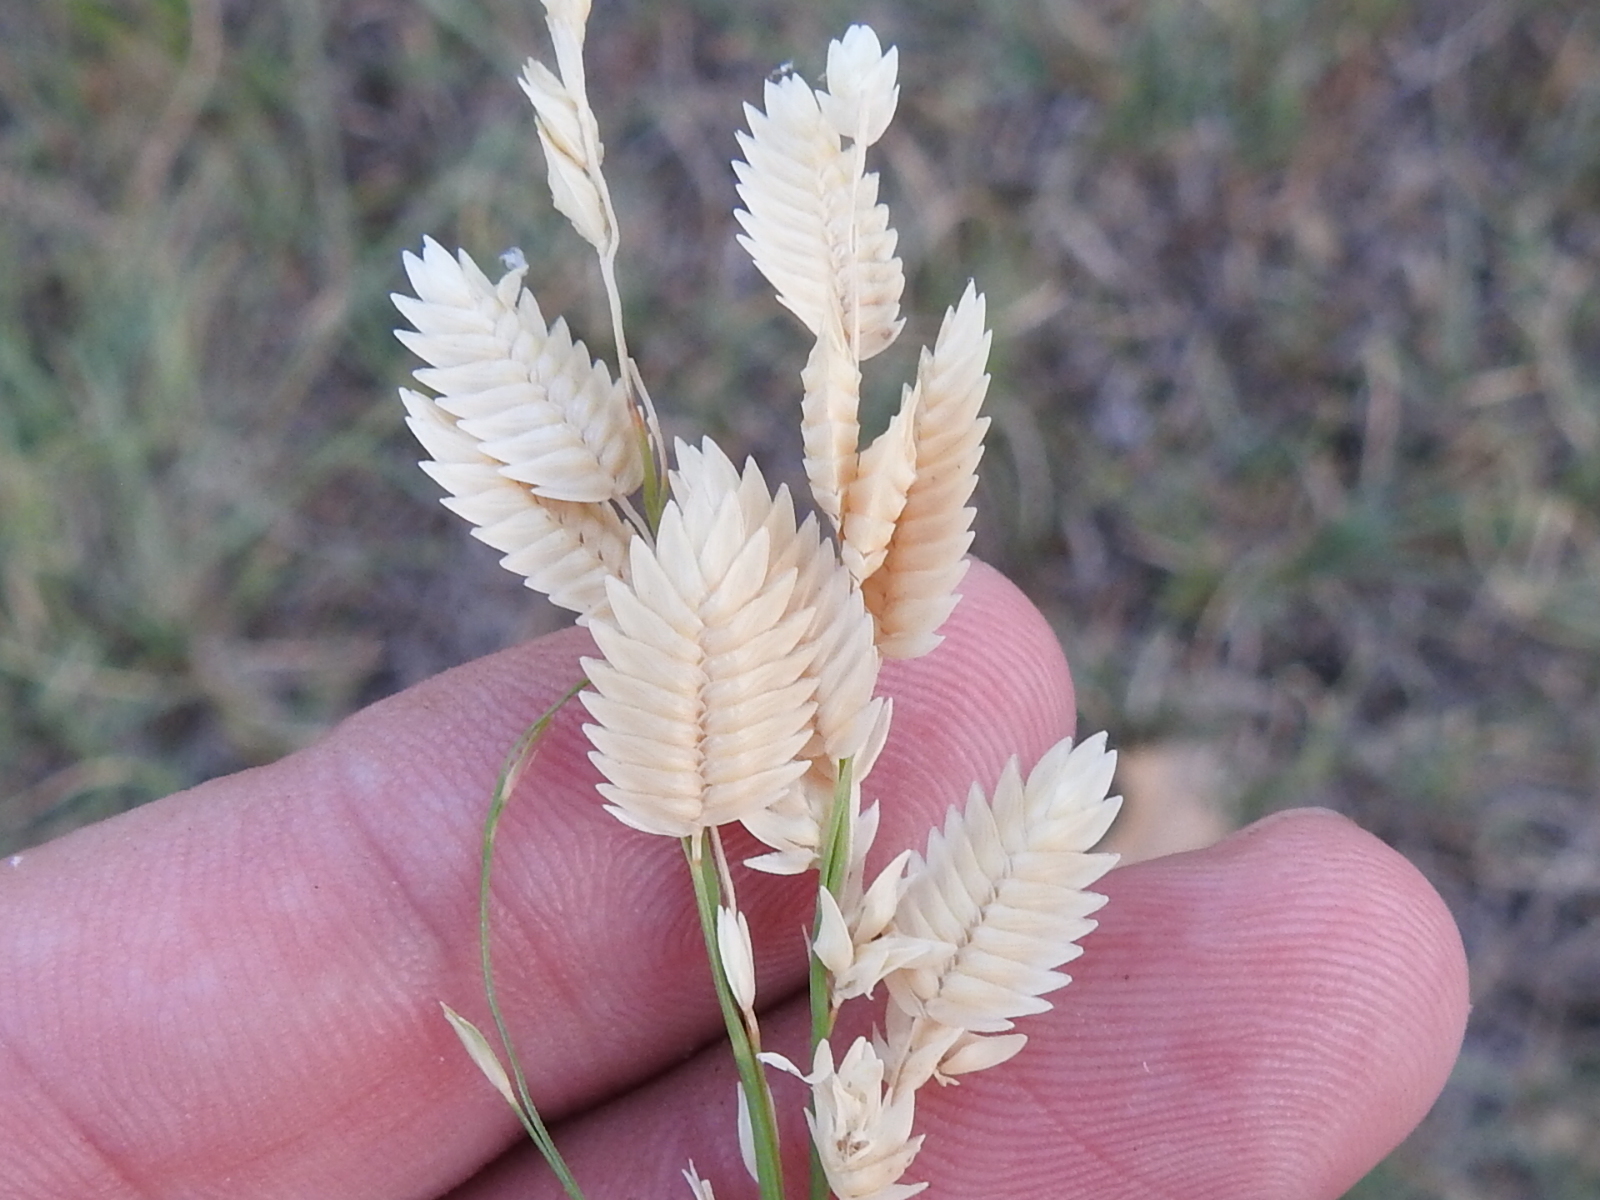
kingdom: Plantae
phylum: Tracheophyta
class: Liliopsida
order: Poales
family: Poaceae
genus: Eragrostis
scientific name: Eragrostis superba
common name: Wilman lovegrass
